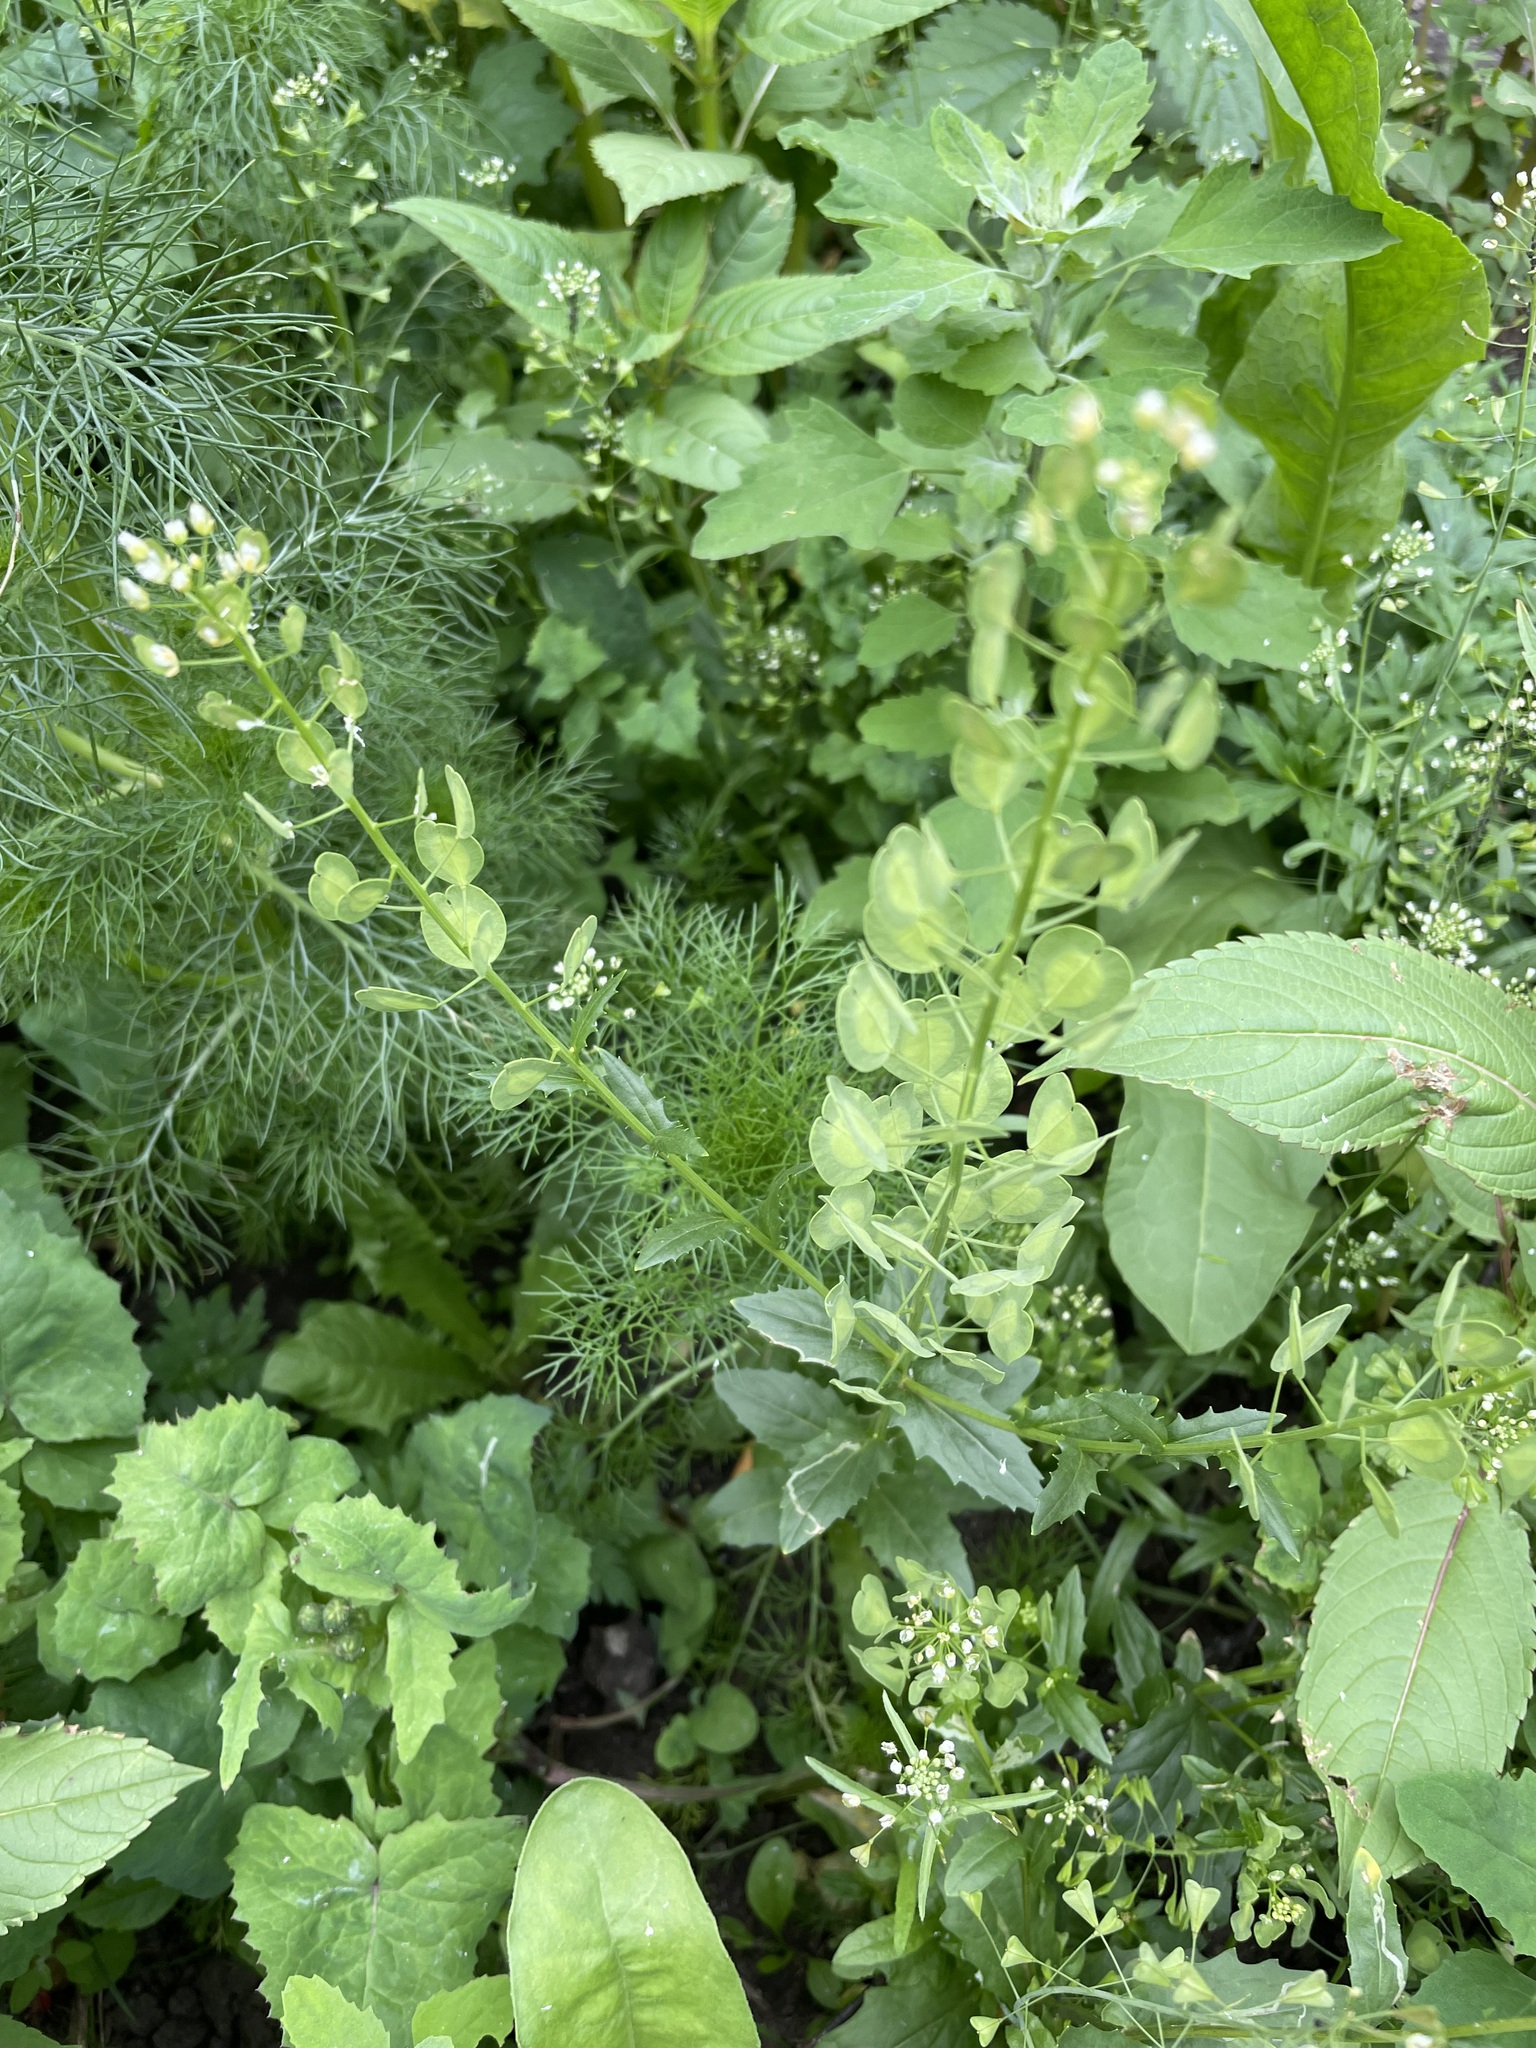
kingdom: Plantae
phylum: Tracheophyta
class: Magnoliopsida
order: Brassicales
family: Brassicaceae
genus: Thlaspi
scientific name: Thlaspi arvense
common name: Field pennycress
